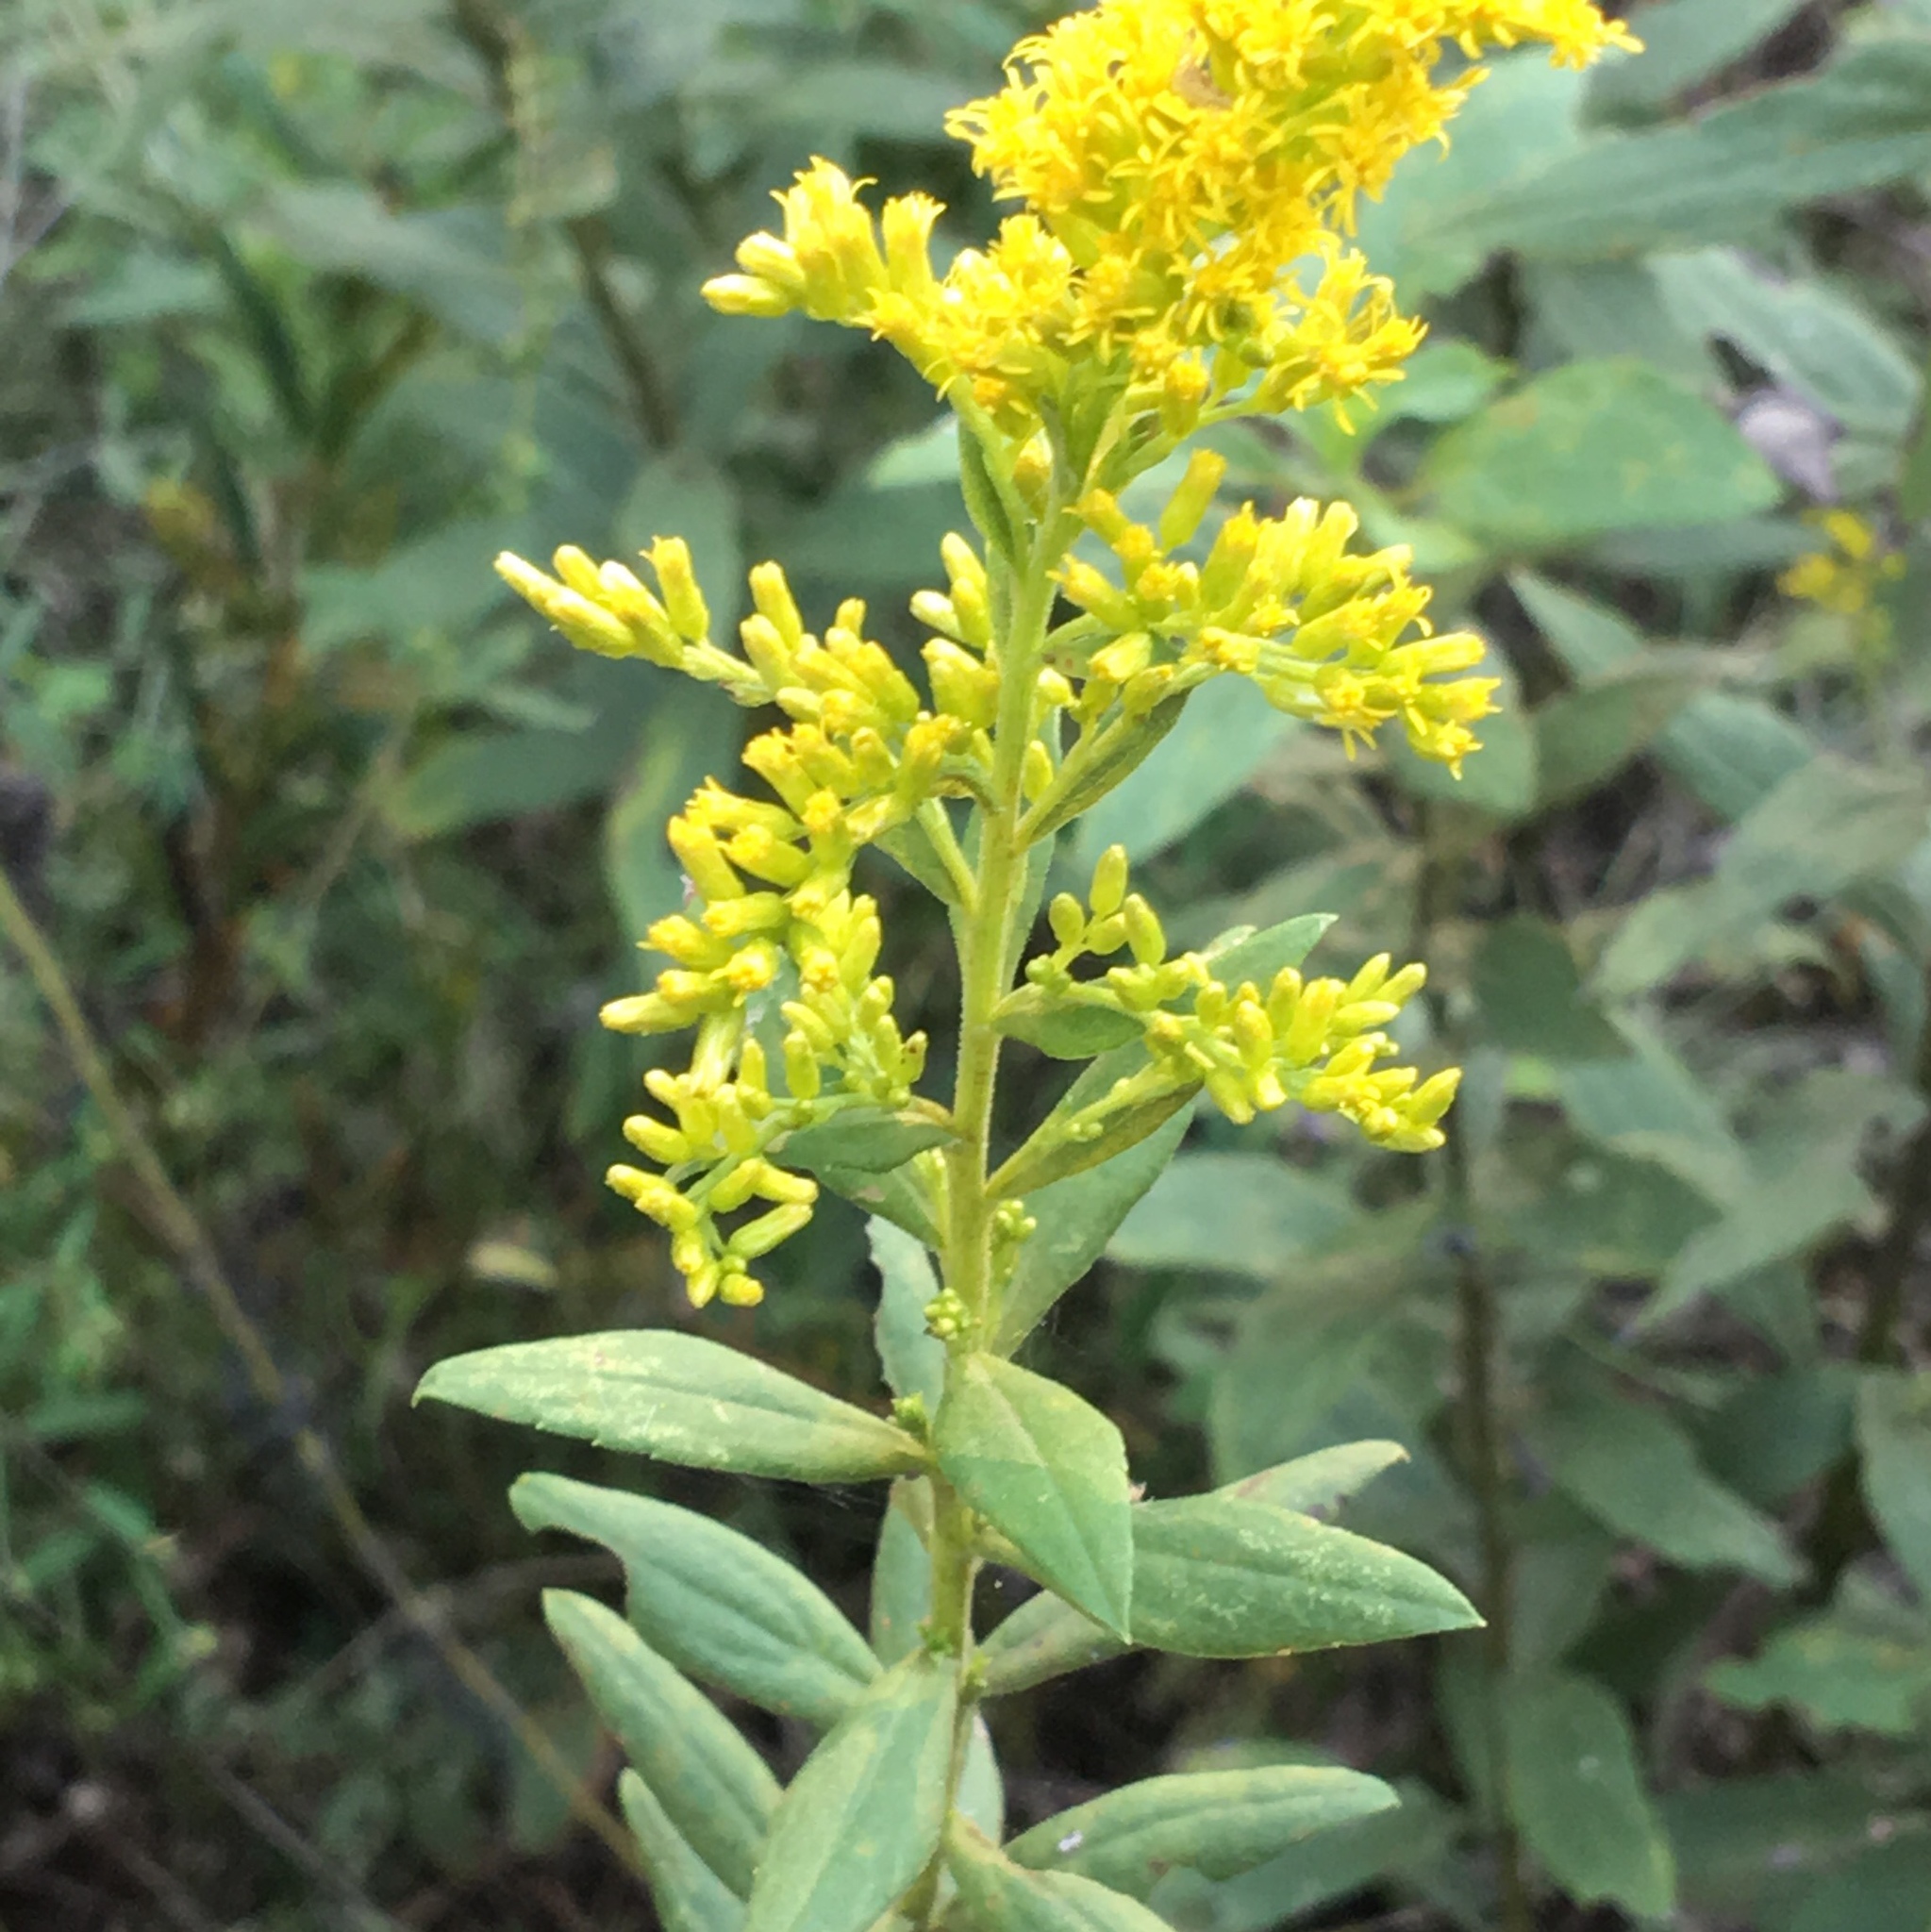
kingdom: Plantae
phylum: Tracheophyta
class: Magnoliopsida
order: Asterales
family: Asteraceae
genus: Solidago
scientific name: Solidago altissima
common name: Late goldenrod
